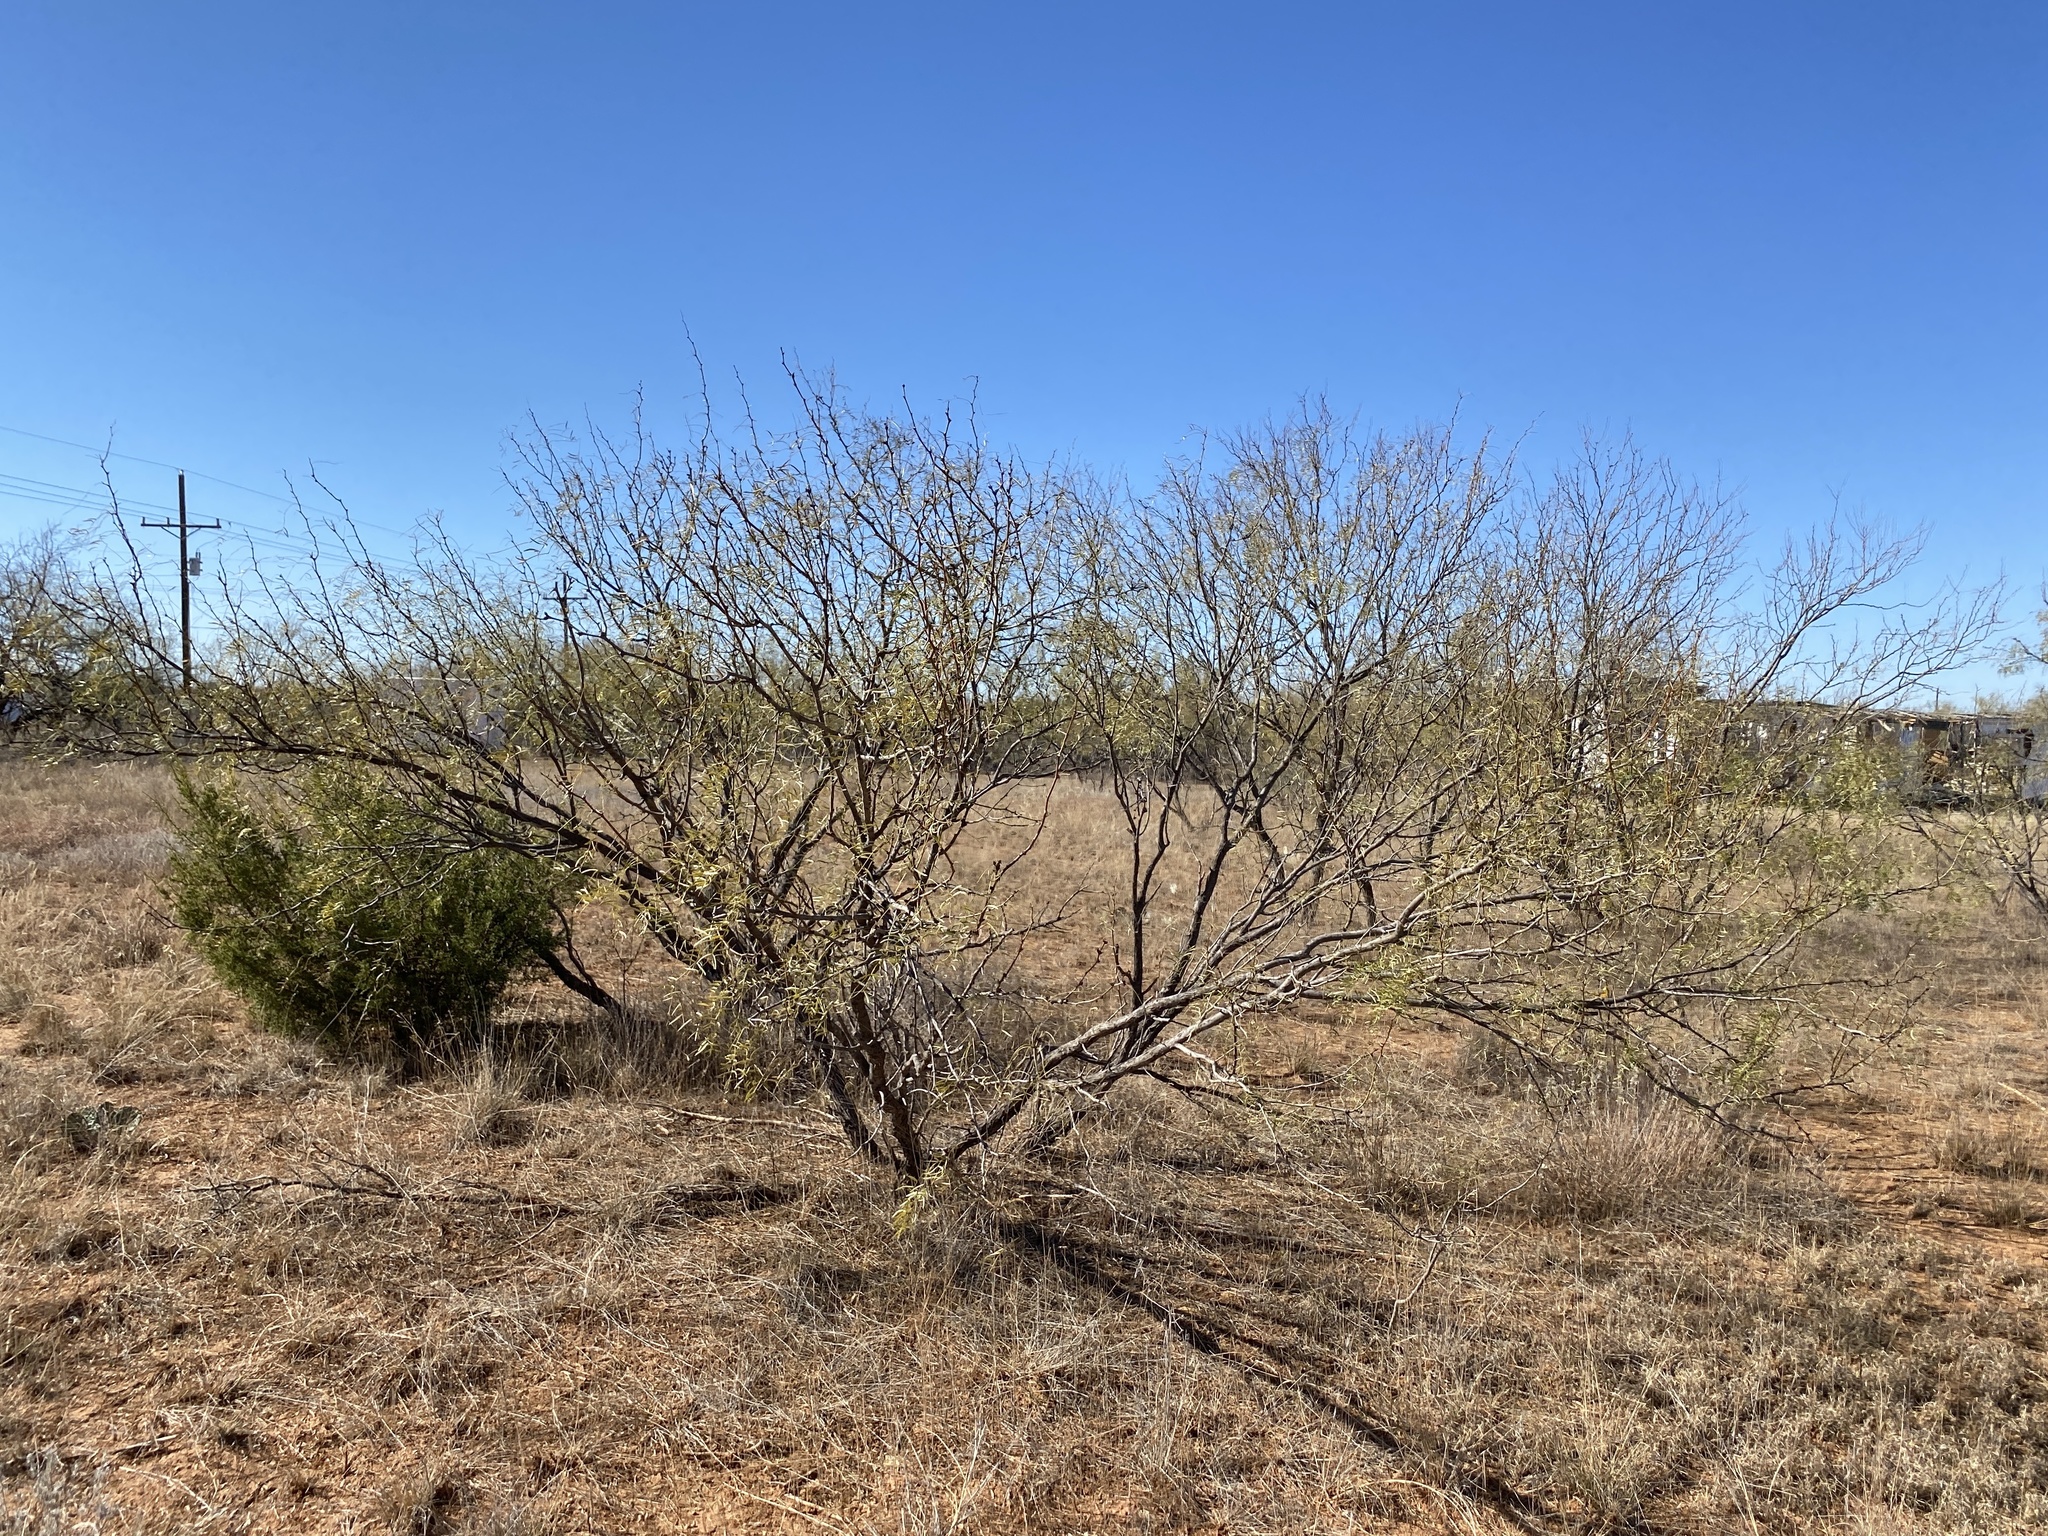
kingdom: Plantae
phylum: Tracheophyta
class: Magnoliopsida
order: Fabales
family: Fabaceae
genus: Prosopis
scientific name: Prosopis glandulosa
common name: Honey mesquite
